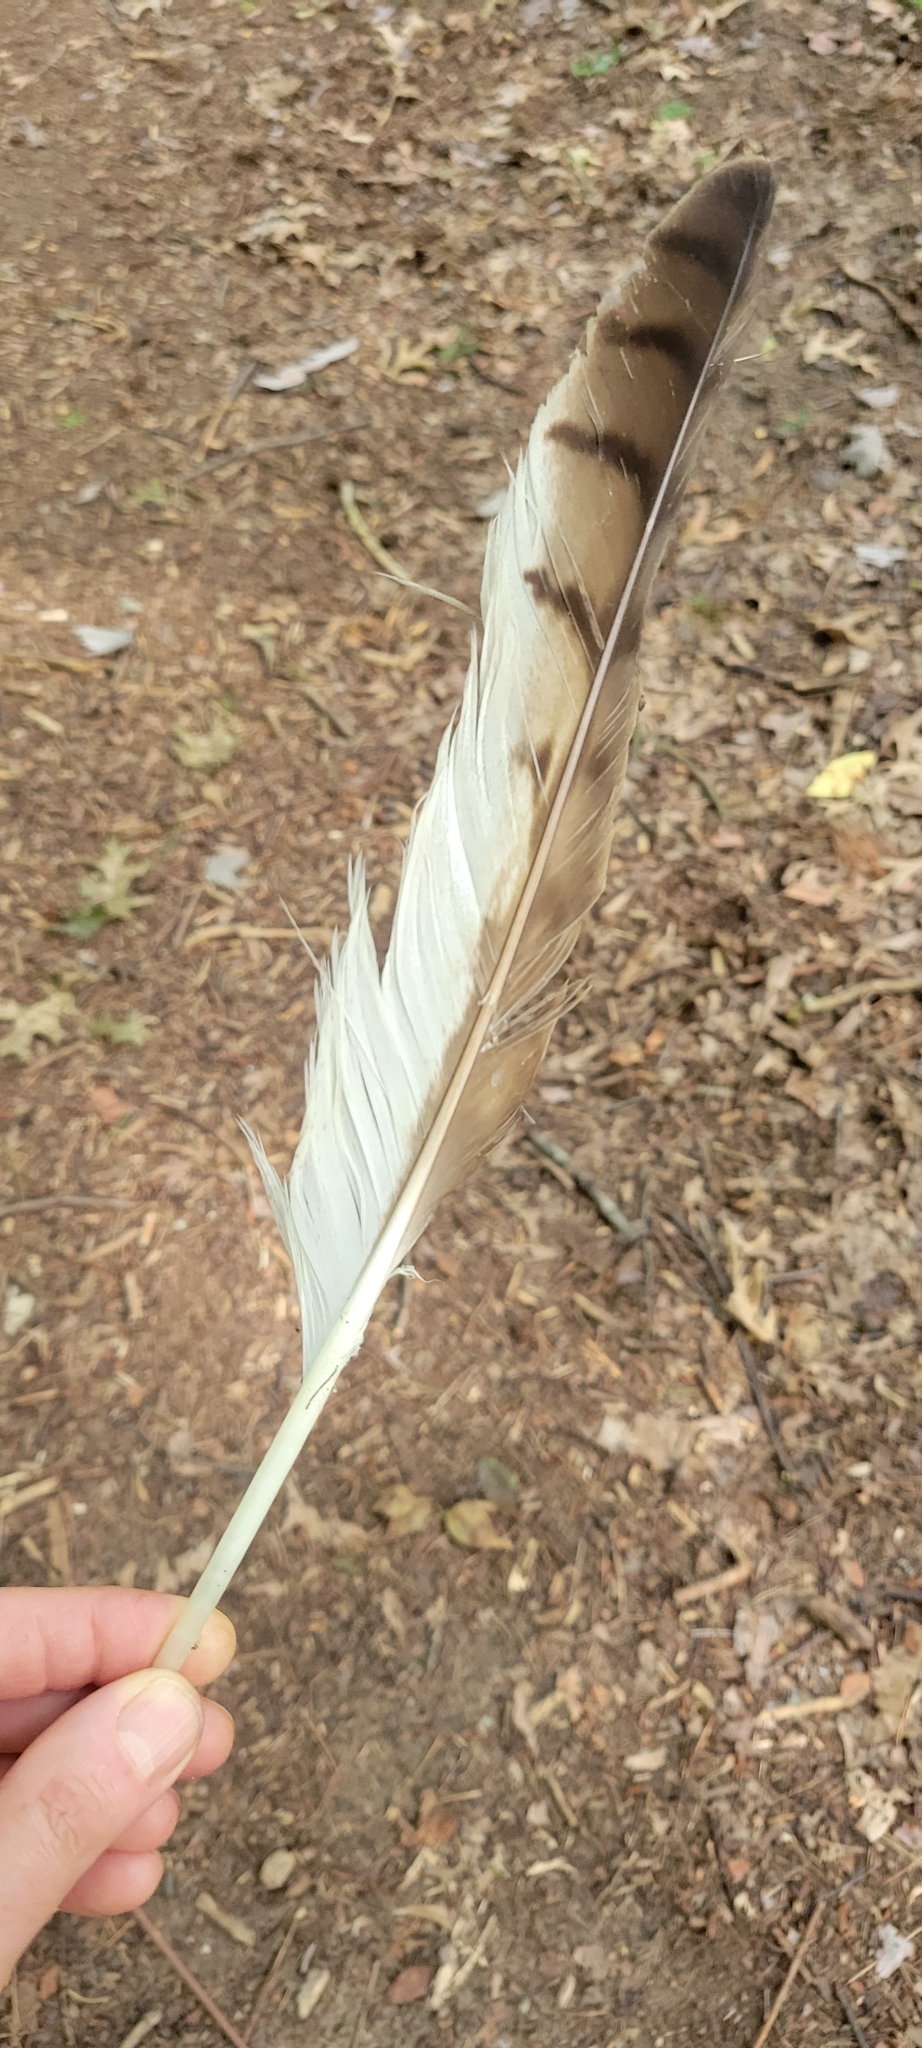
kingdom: Animalia
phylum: Chordata
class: Aves
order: Accipitriformes
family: Accipitridae
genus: Buteo
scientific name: Buteo jamaicensis
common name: Red-tailed hawk
